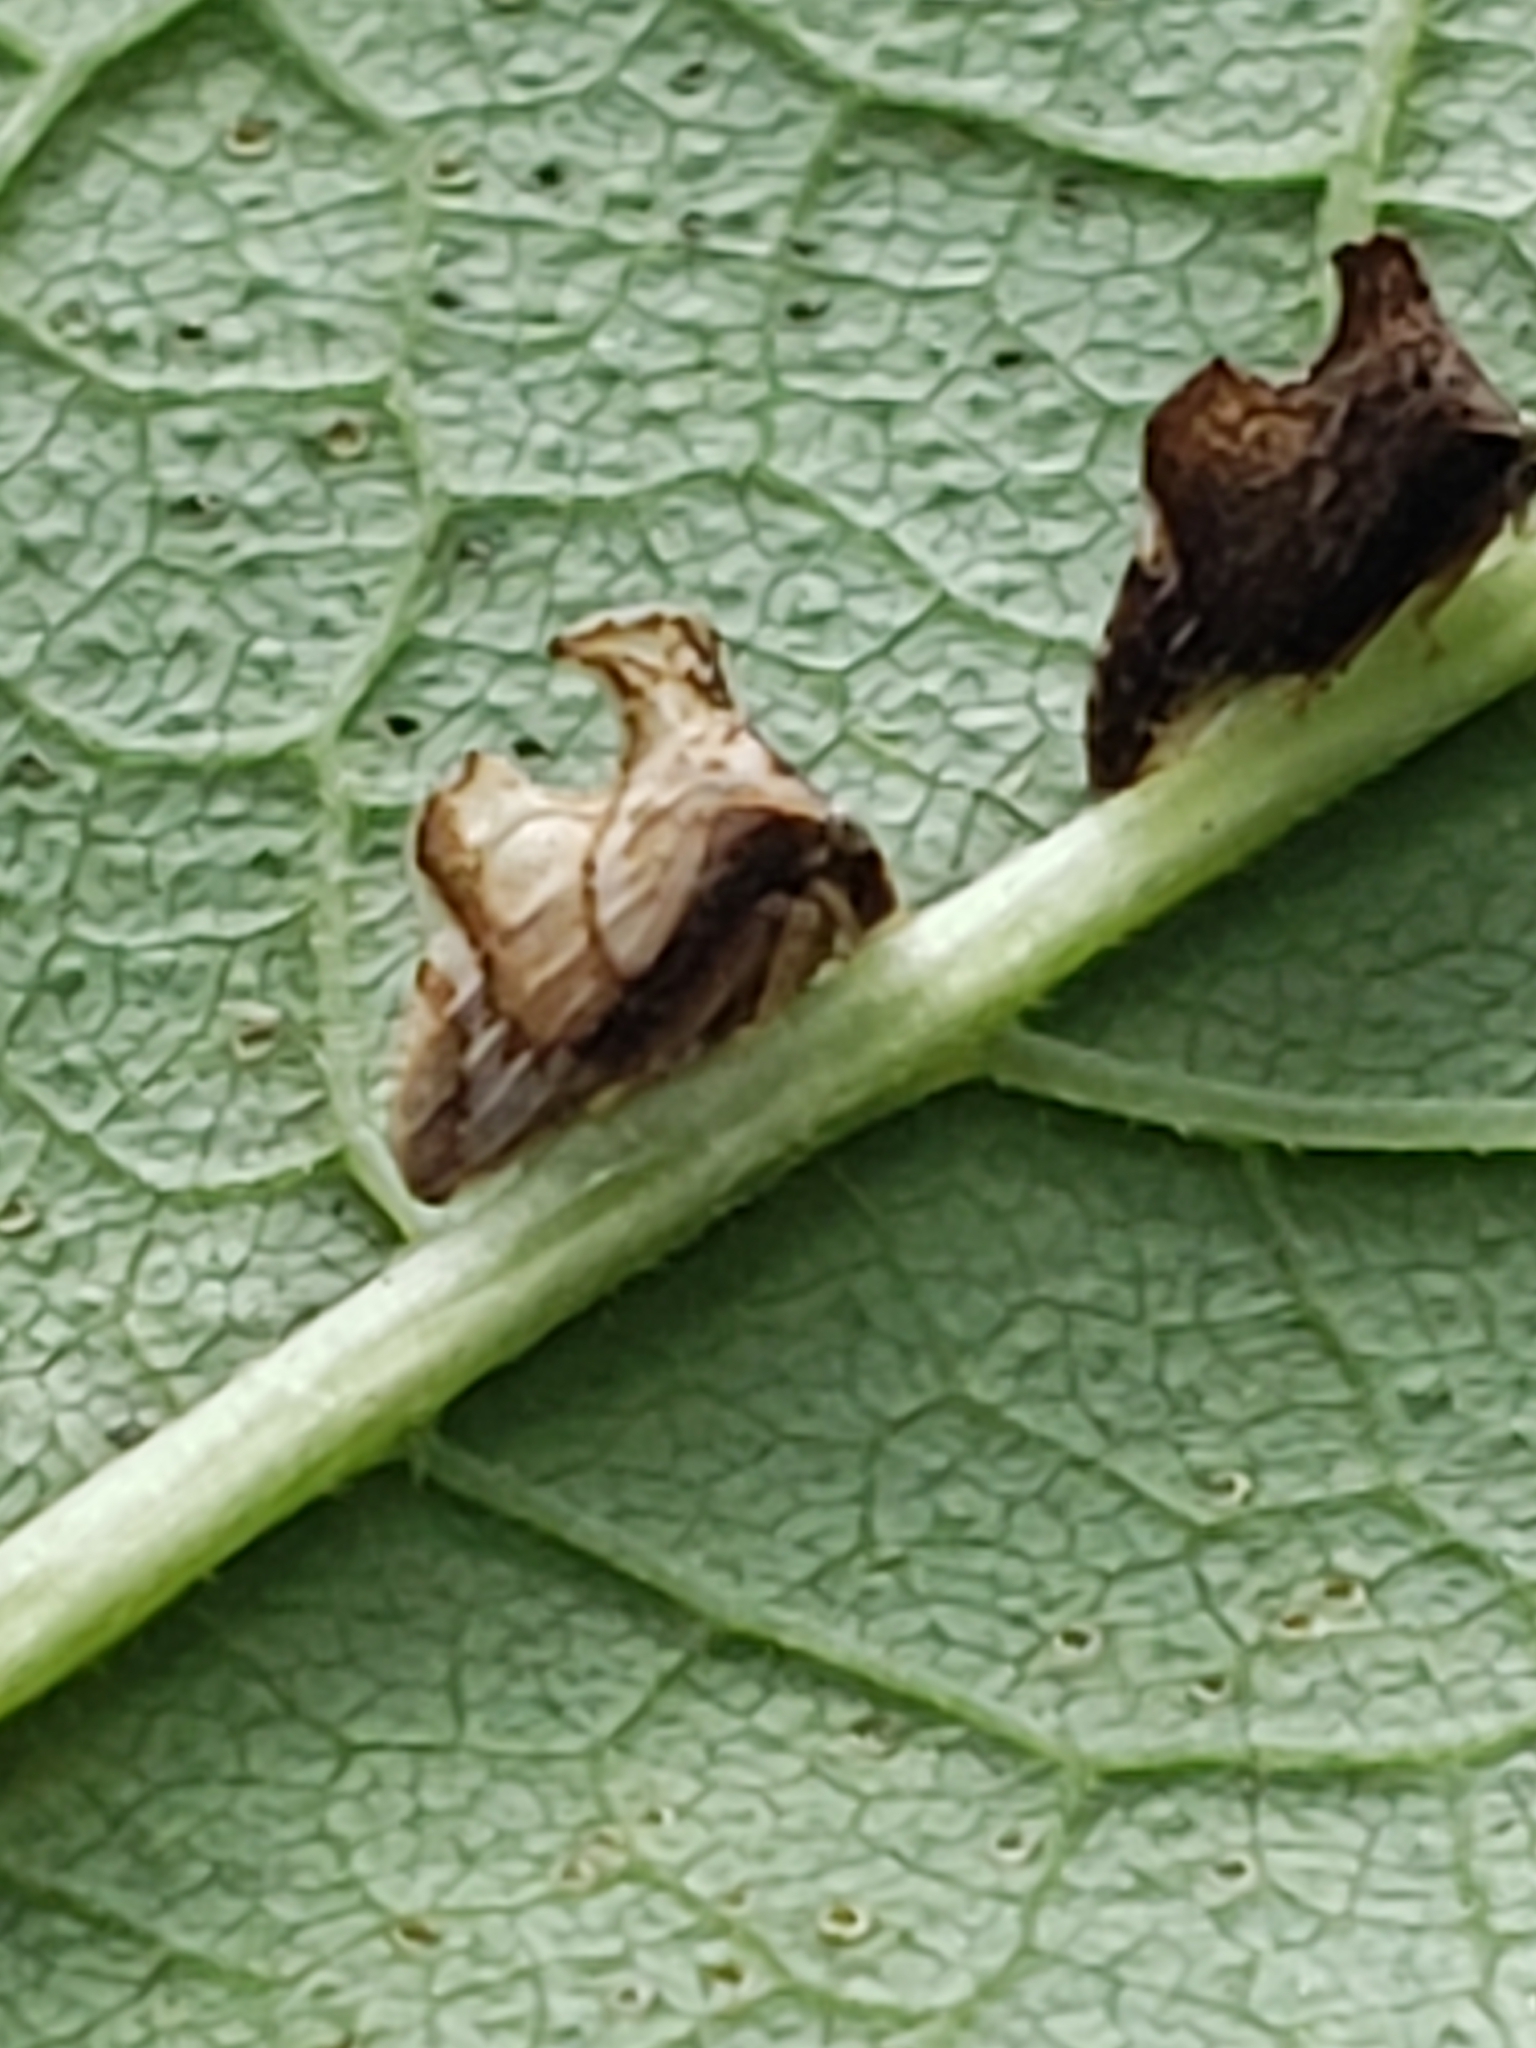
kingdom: Animalia
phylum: Arthropoda
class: Insecta
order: Hemiptera
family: Membracidae
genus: Entylia
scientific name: Entylia carinata
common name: Keeled treehopper
